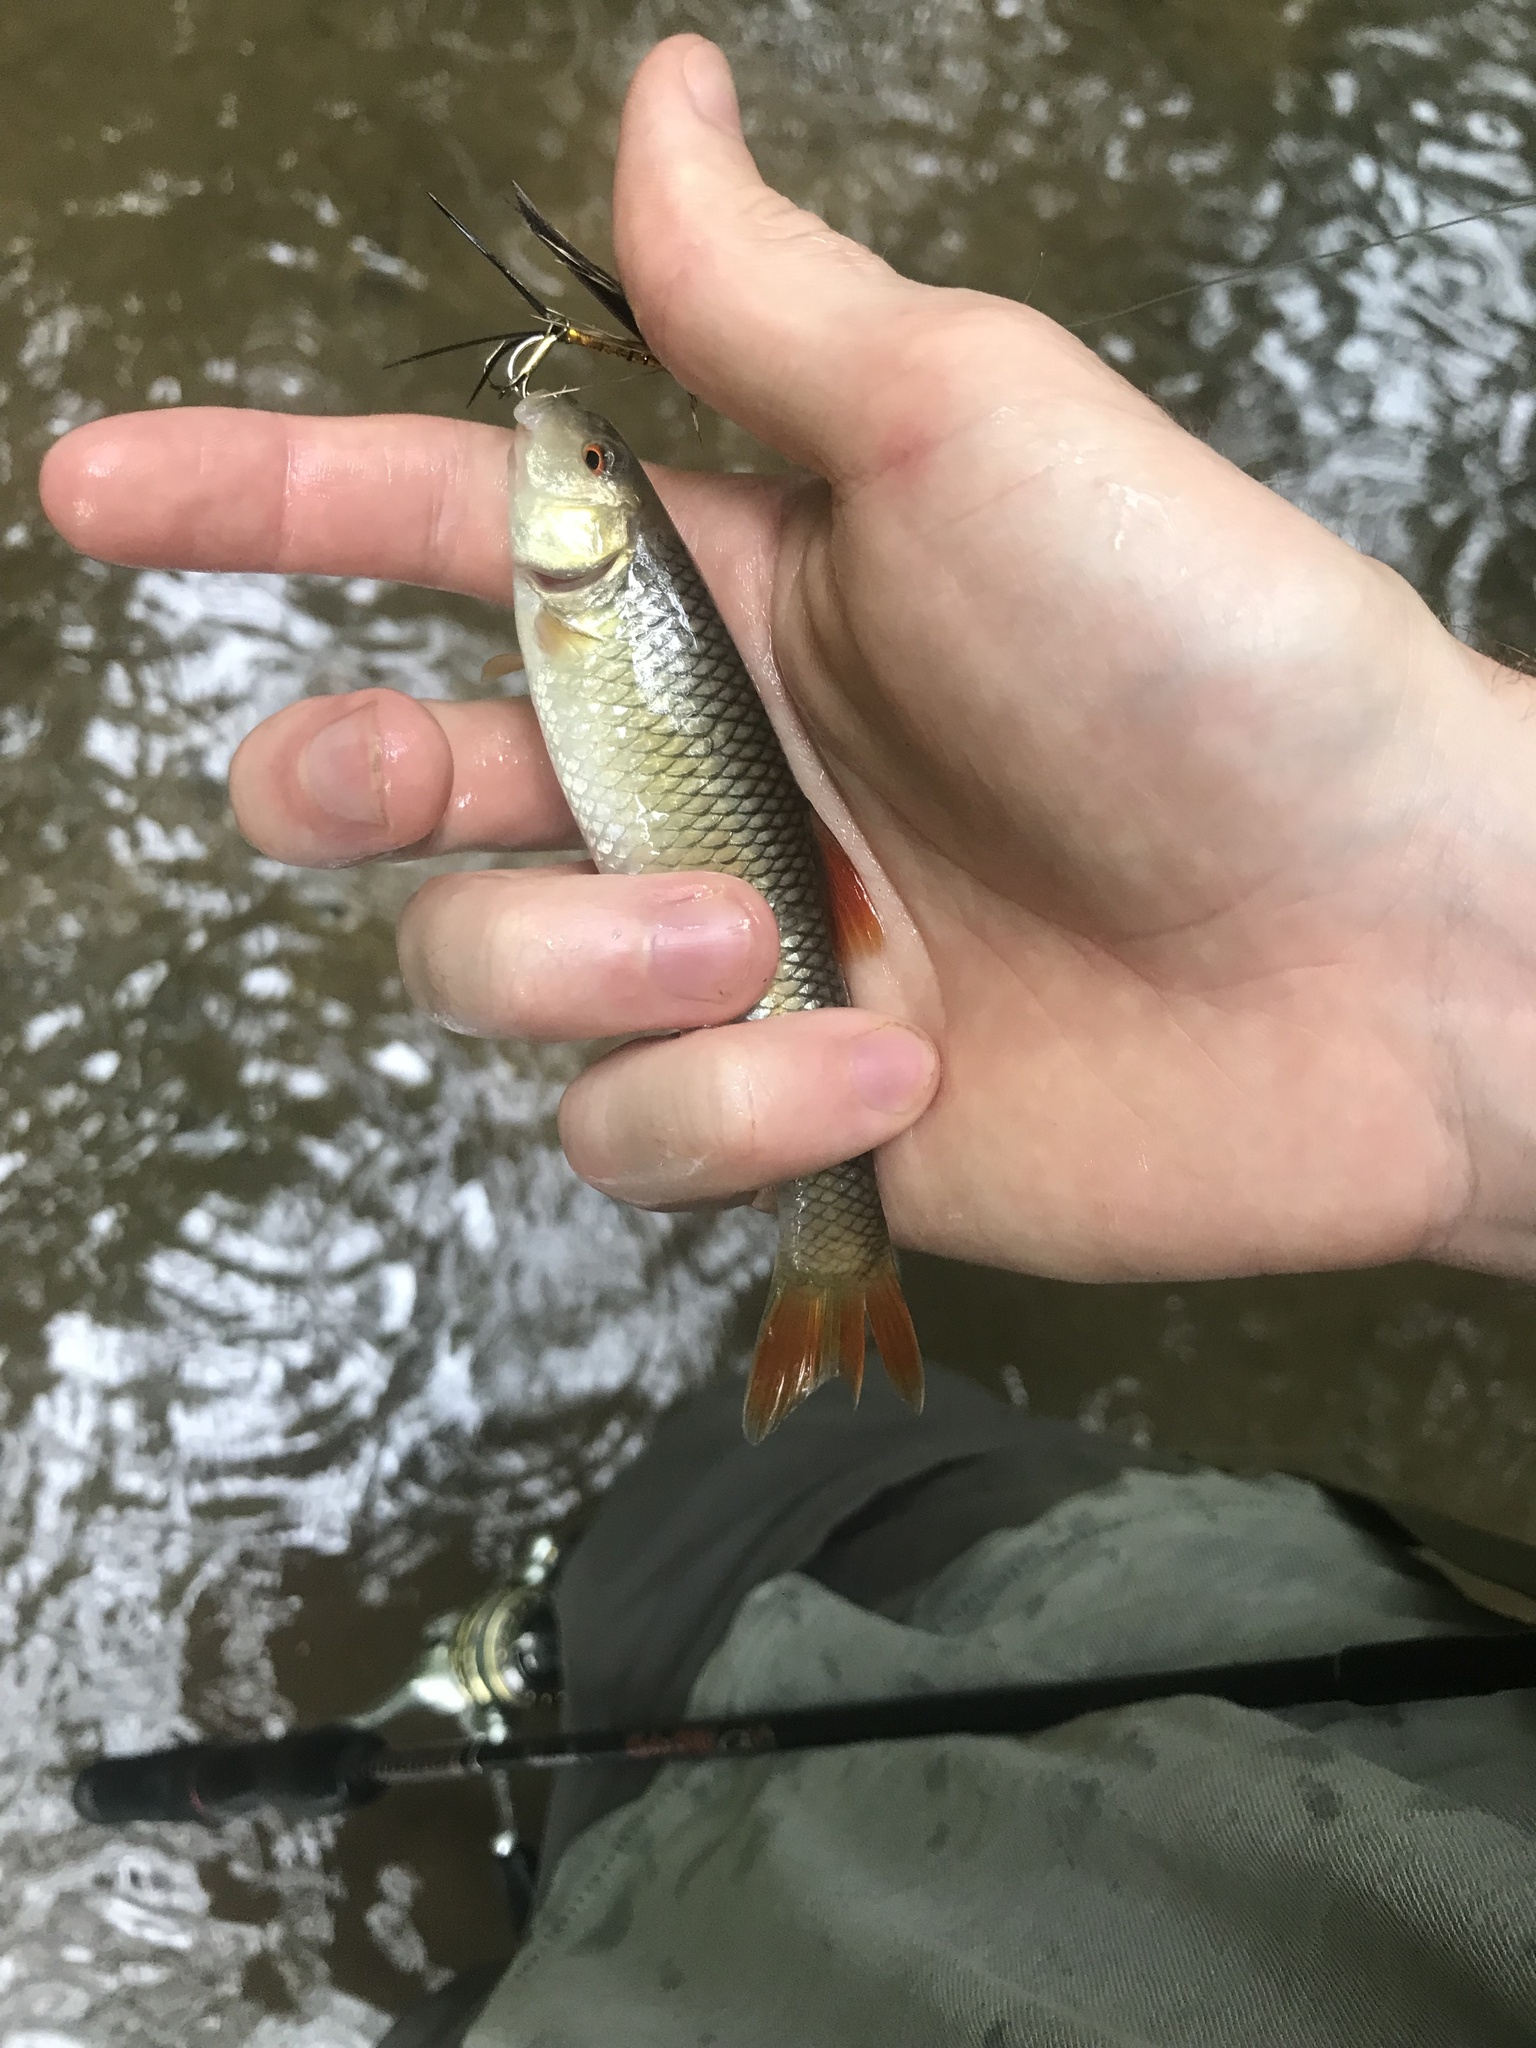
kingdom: Animalia
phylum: Chordata
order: Cypriniformes
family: Cyprinidae
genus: Nocomis
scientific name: Nocomis leptocephalus
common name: Bluehead chub
